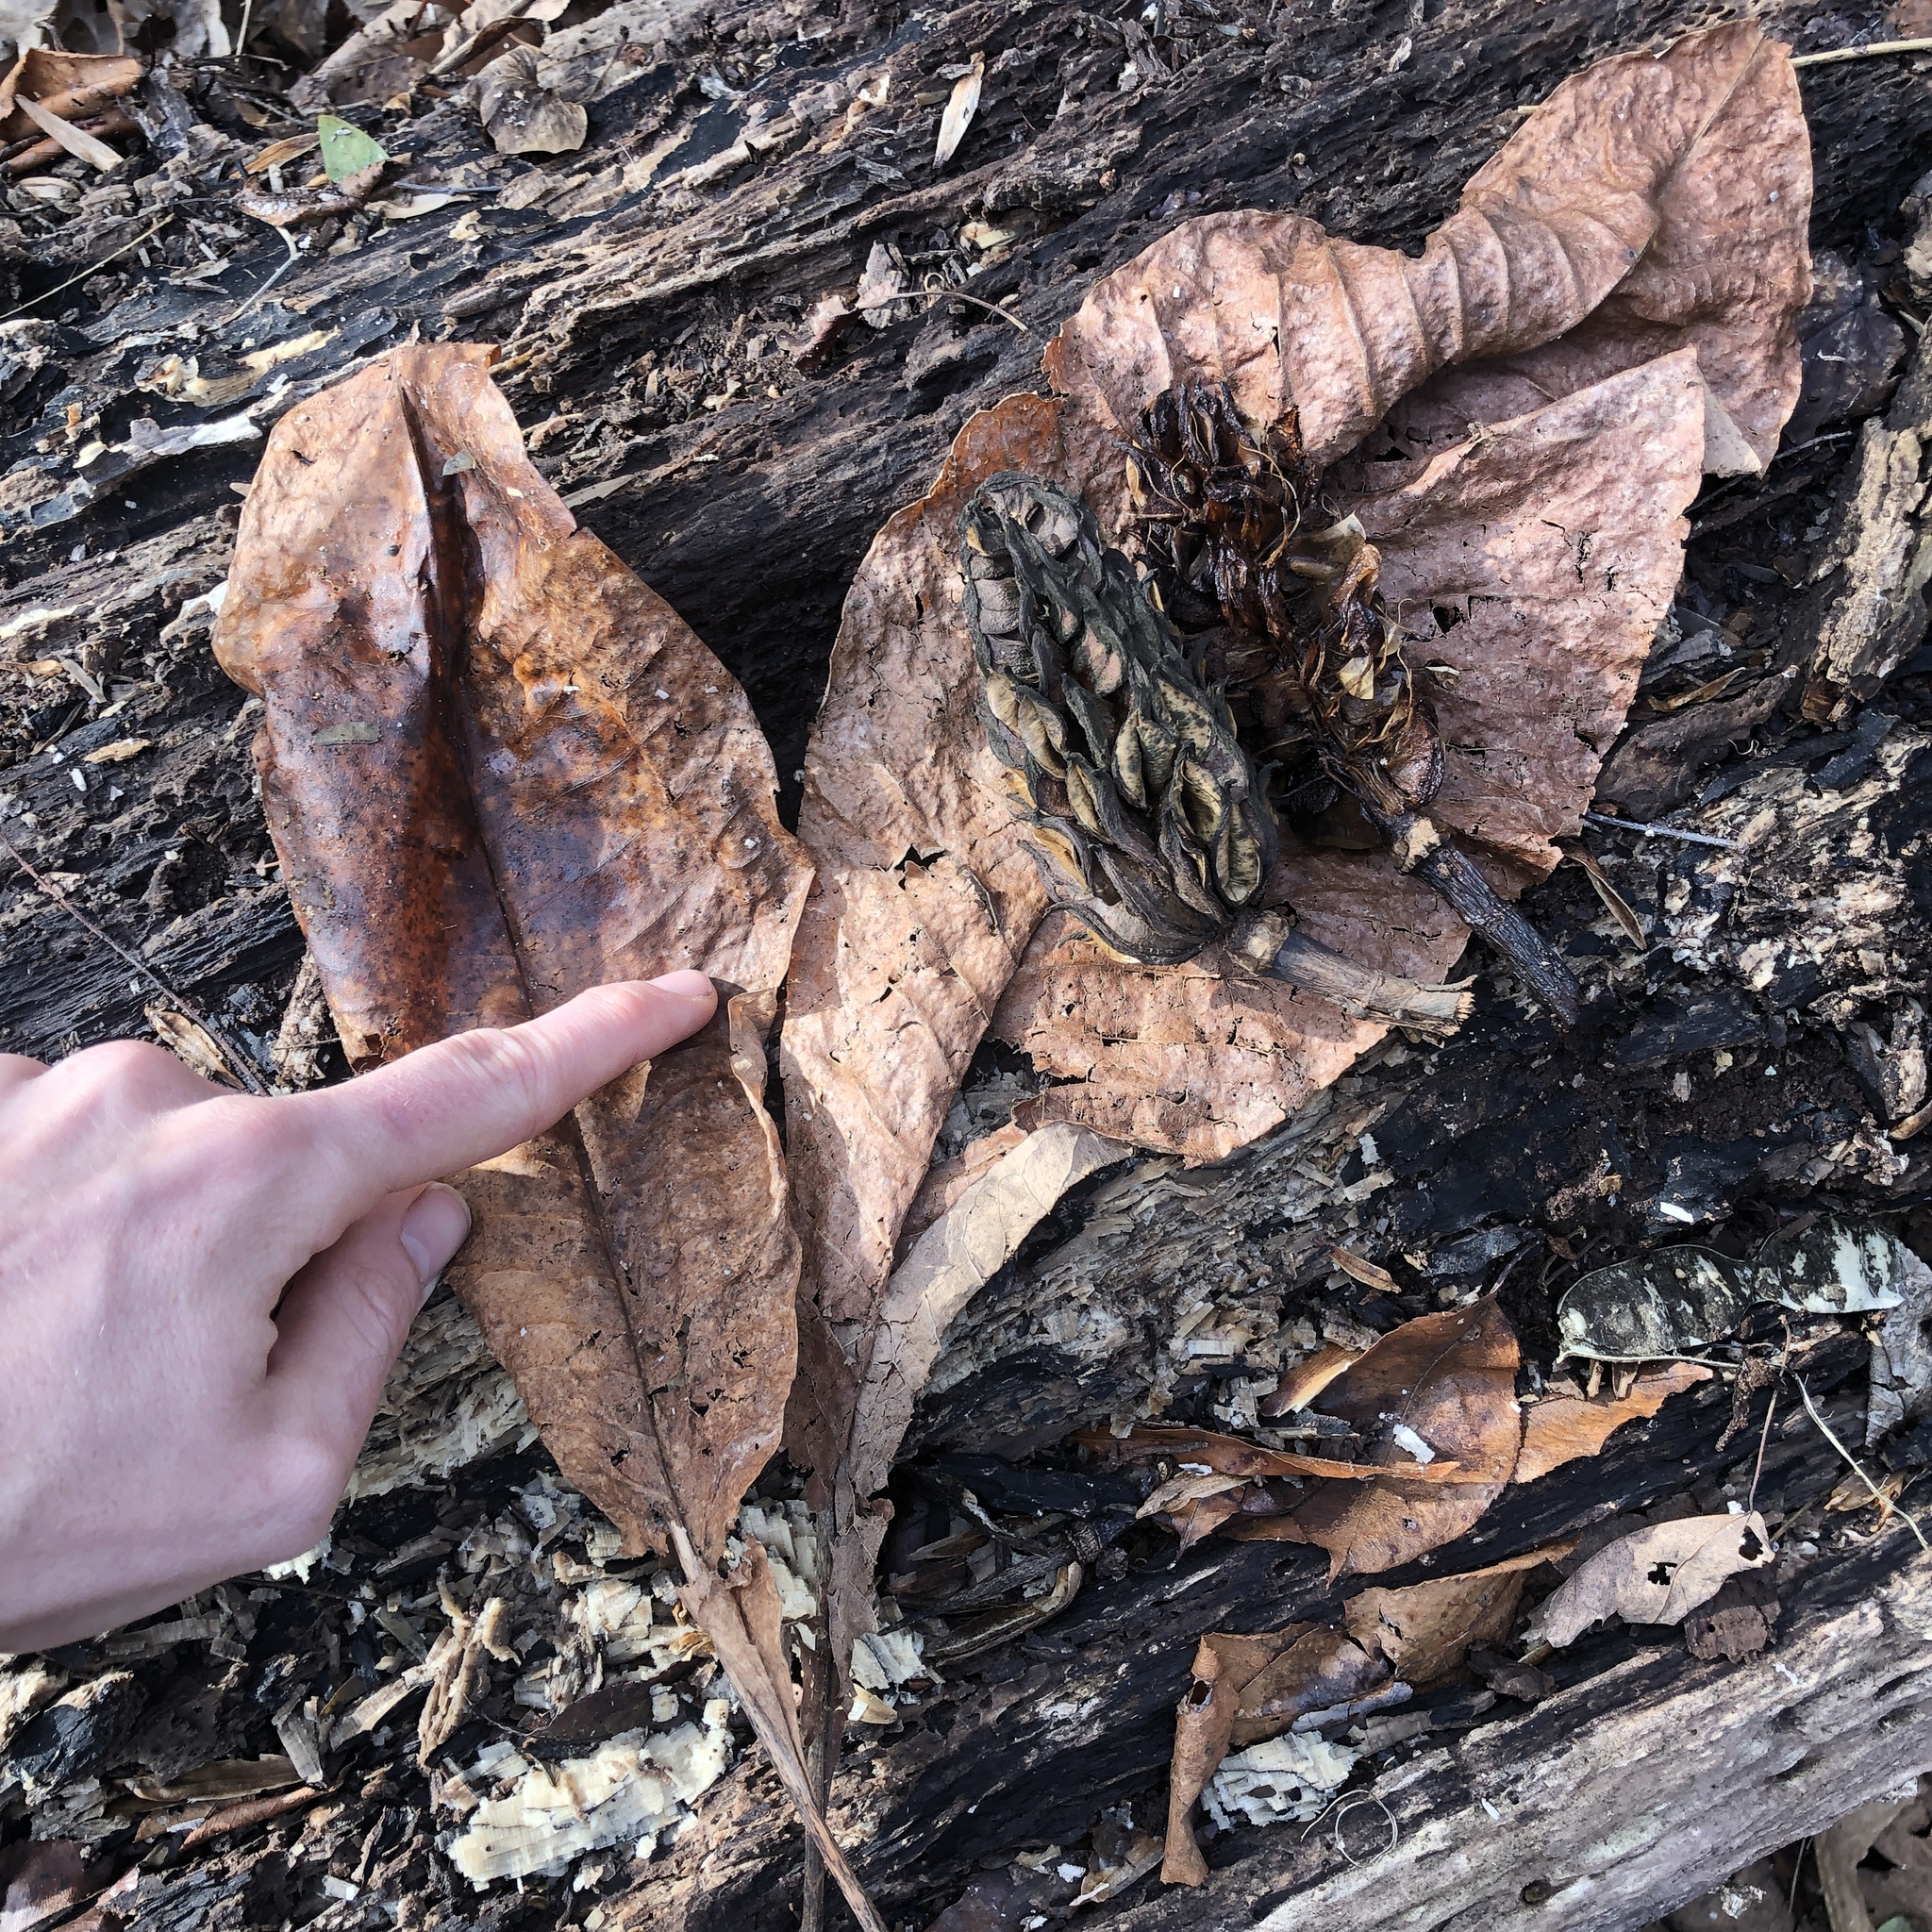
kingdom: Plantae
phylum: Tracheophyta
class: Magnoliopsida
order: Magnoliales
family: Magnoliaceae
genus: Magnolia
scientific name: Magnolia tripetala
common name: Umbrella magnolia
